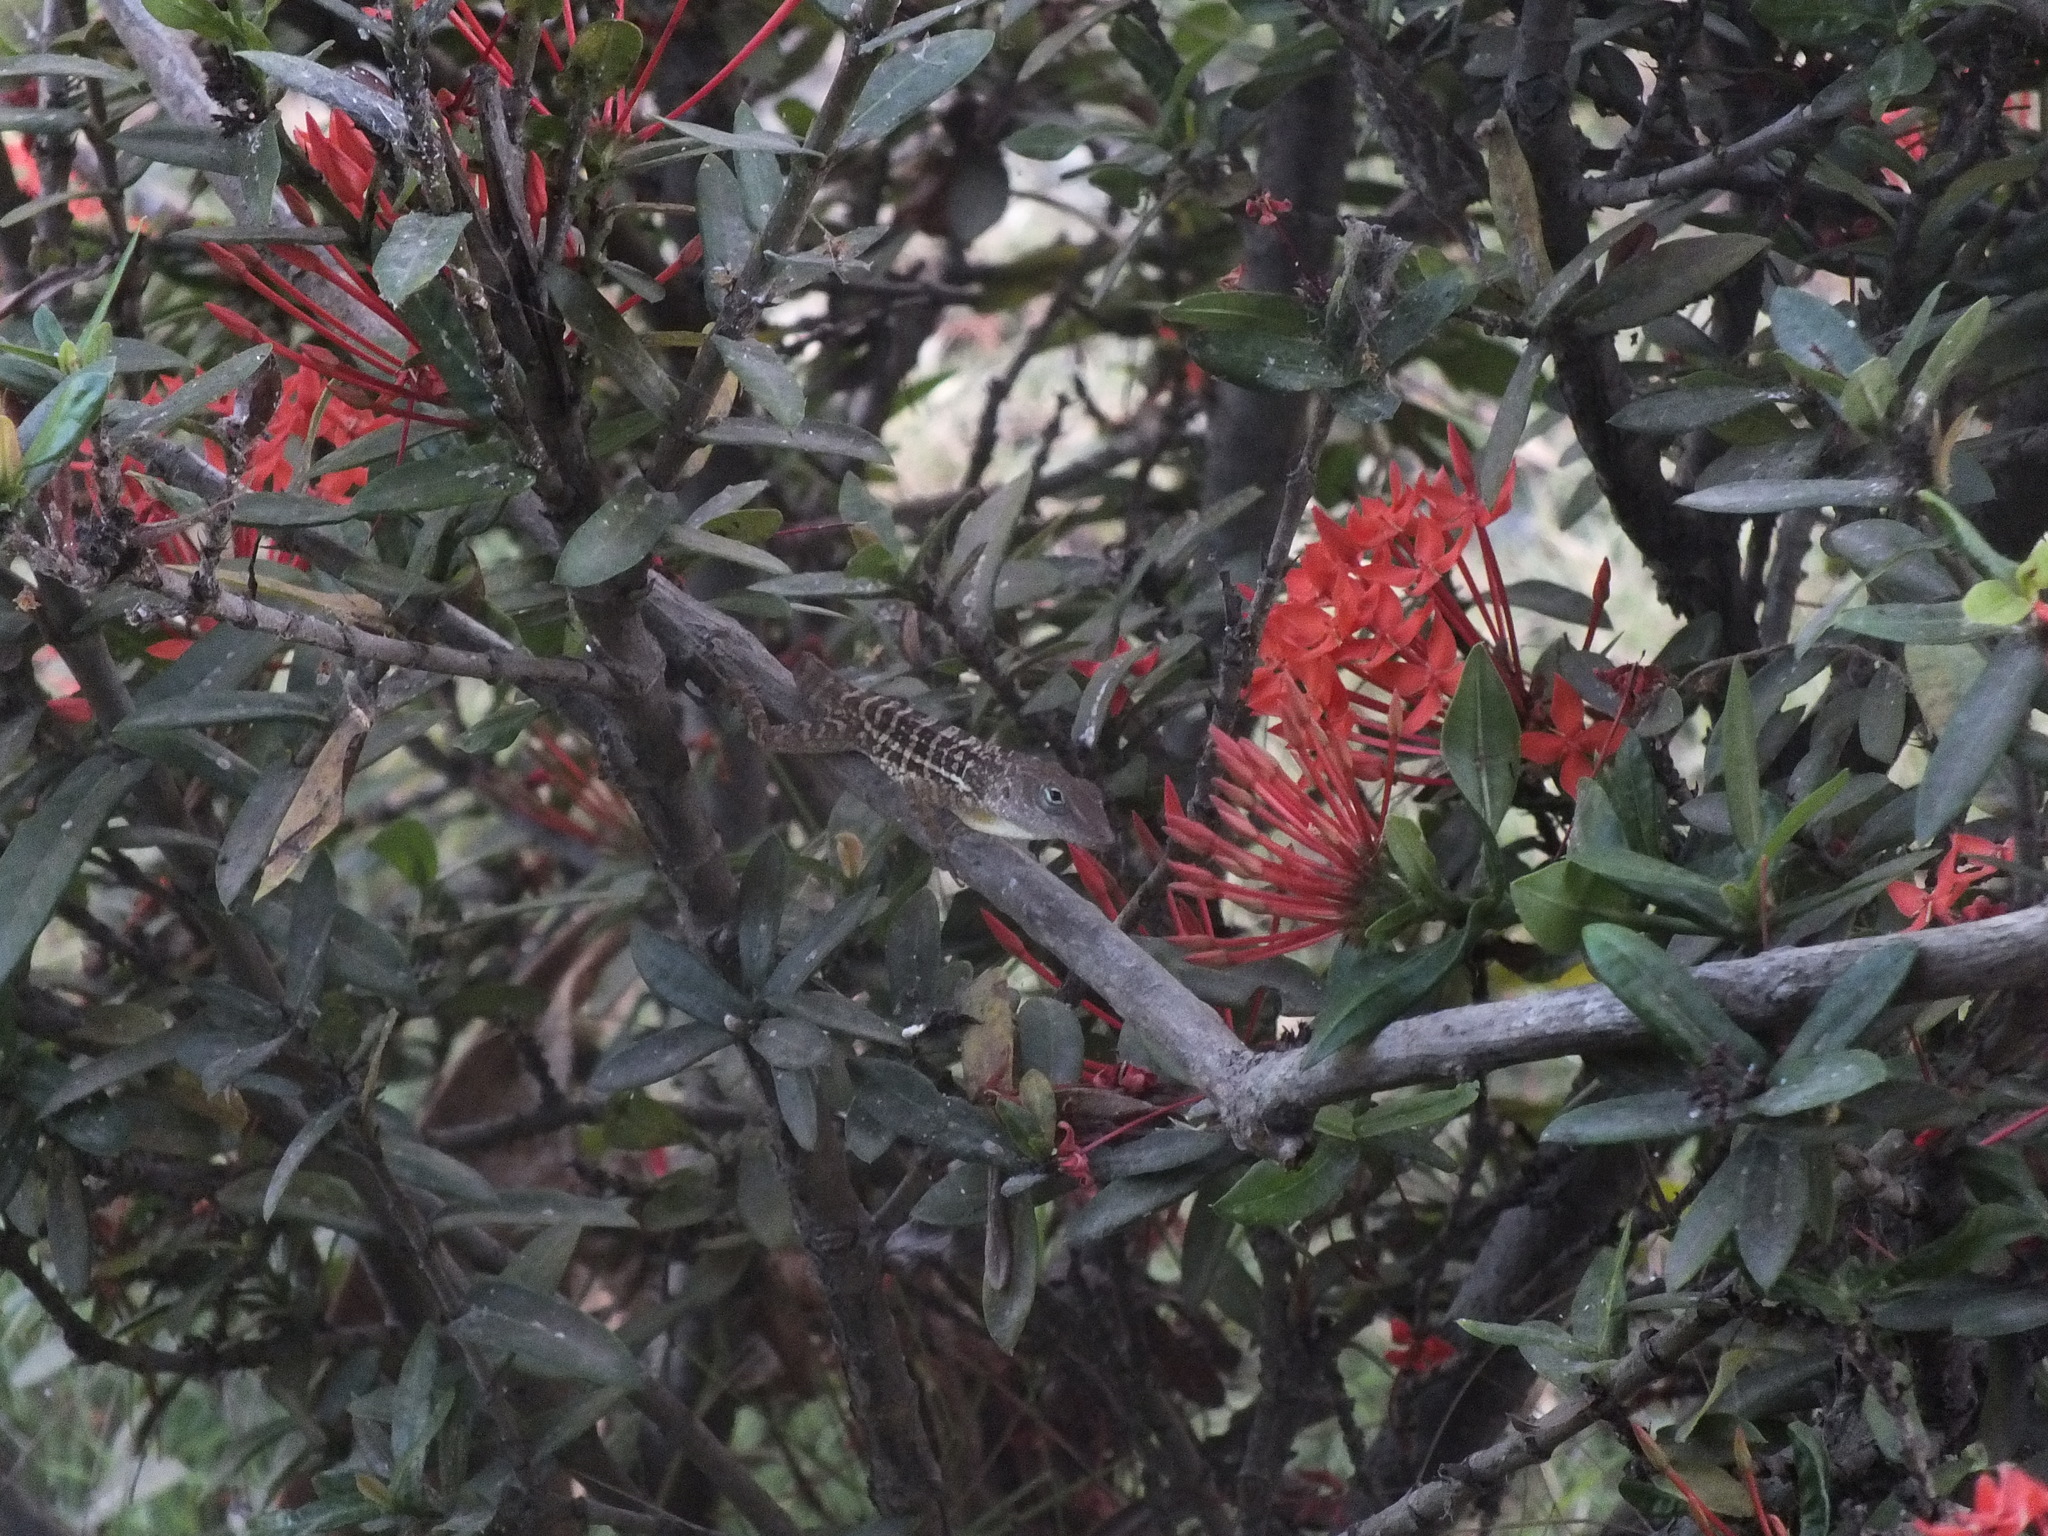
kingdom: Animalia
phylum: Chordata
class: Squamata
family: Dactyloidae
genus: Anolis
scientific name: Anolis lineatopus
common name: Stripefoot anole
